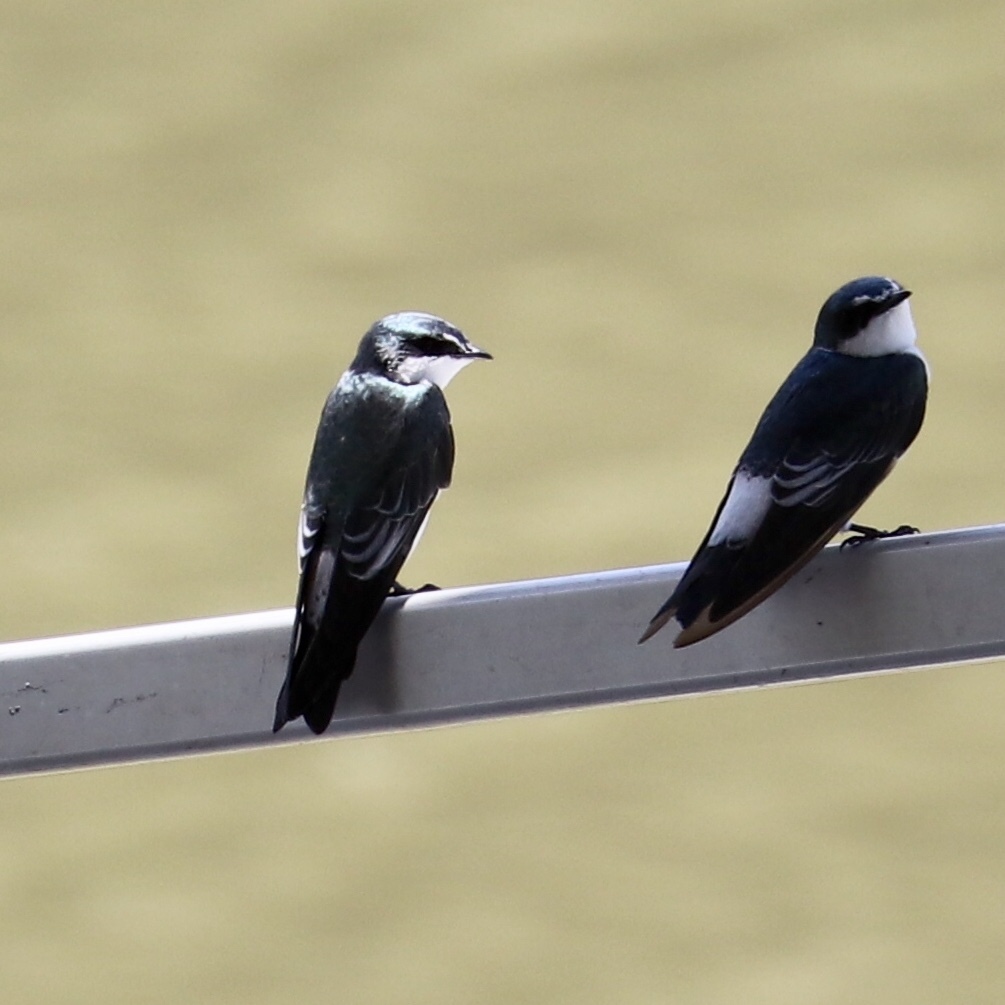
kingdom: Animalia
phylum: Chordata
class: Aves
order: Passeriformes
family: Hirundinidae
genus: Tachycineta
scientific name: Tachycineta albilinea
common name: Mangrove swallow
